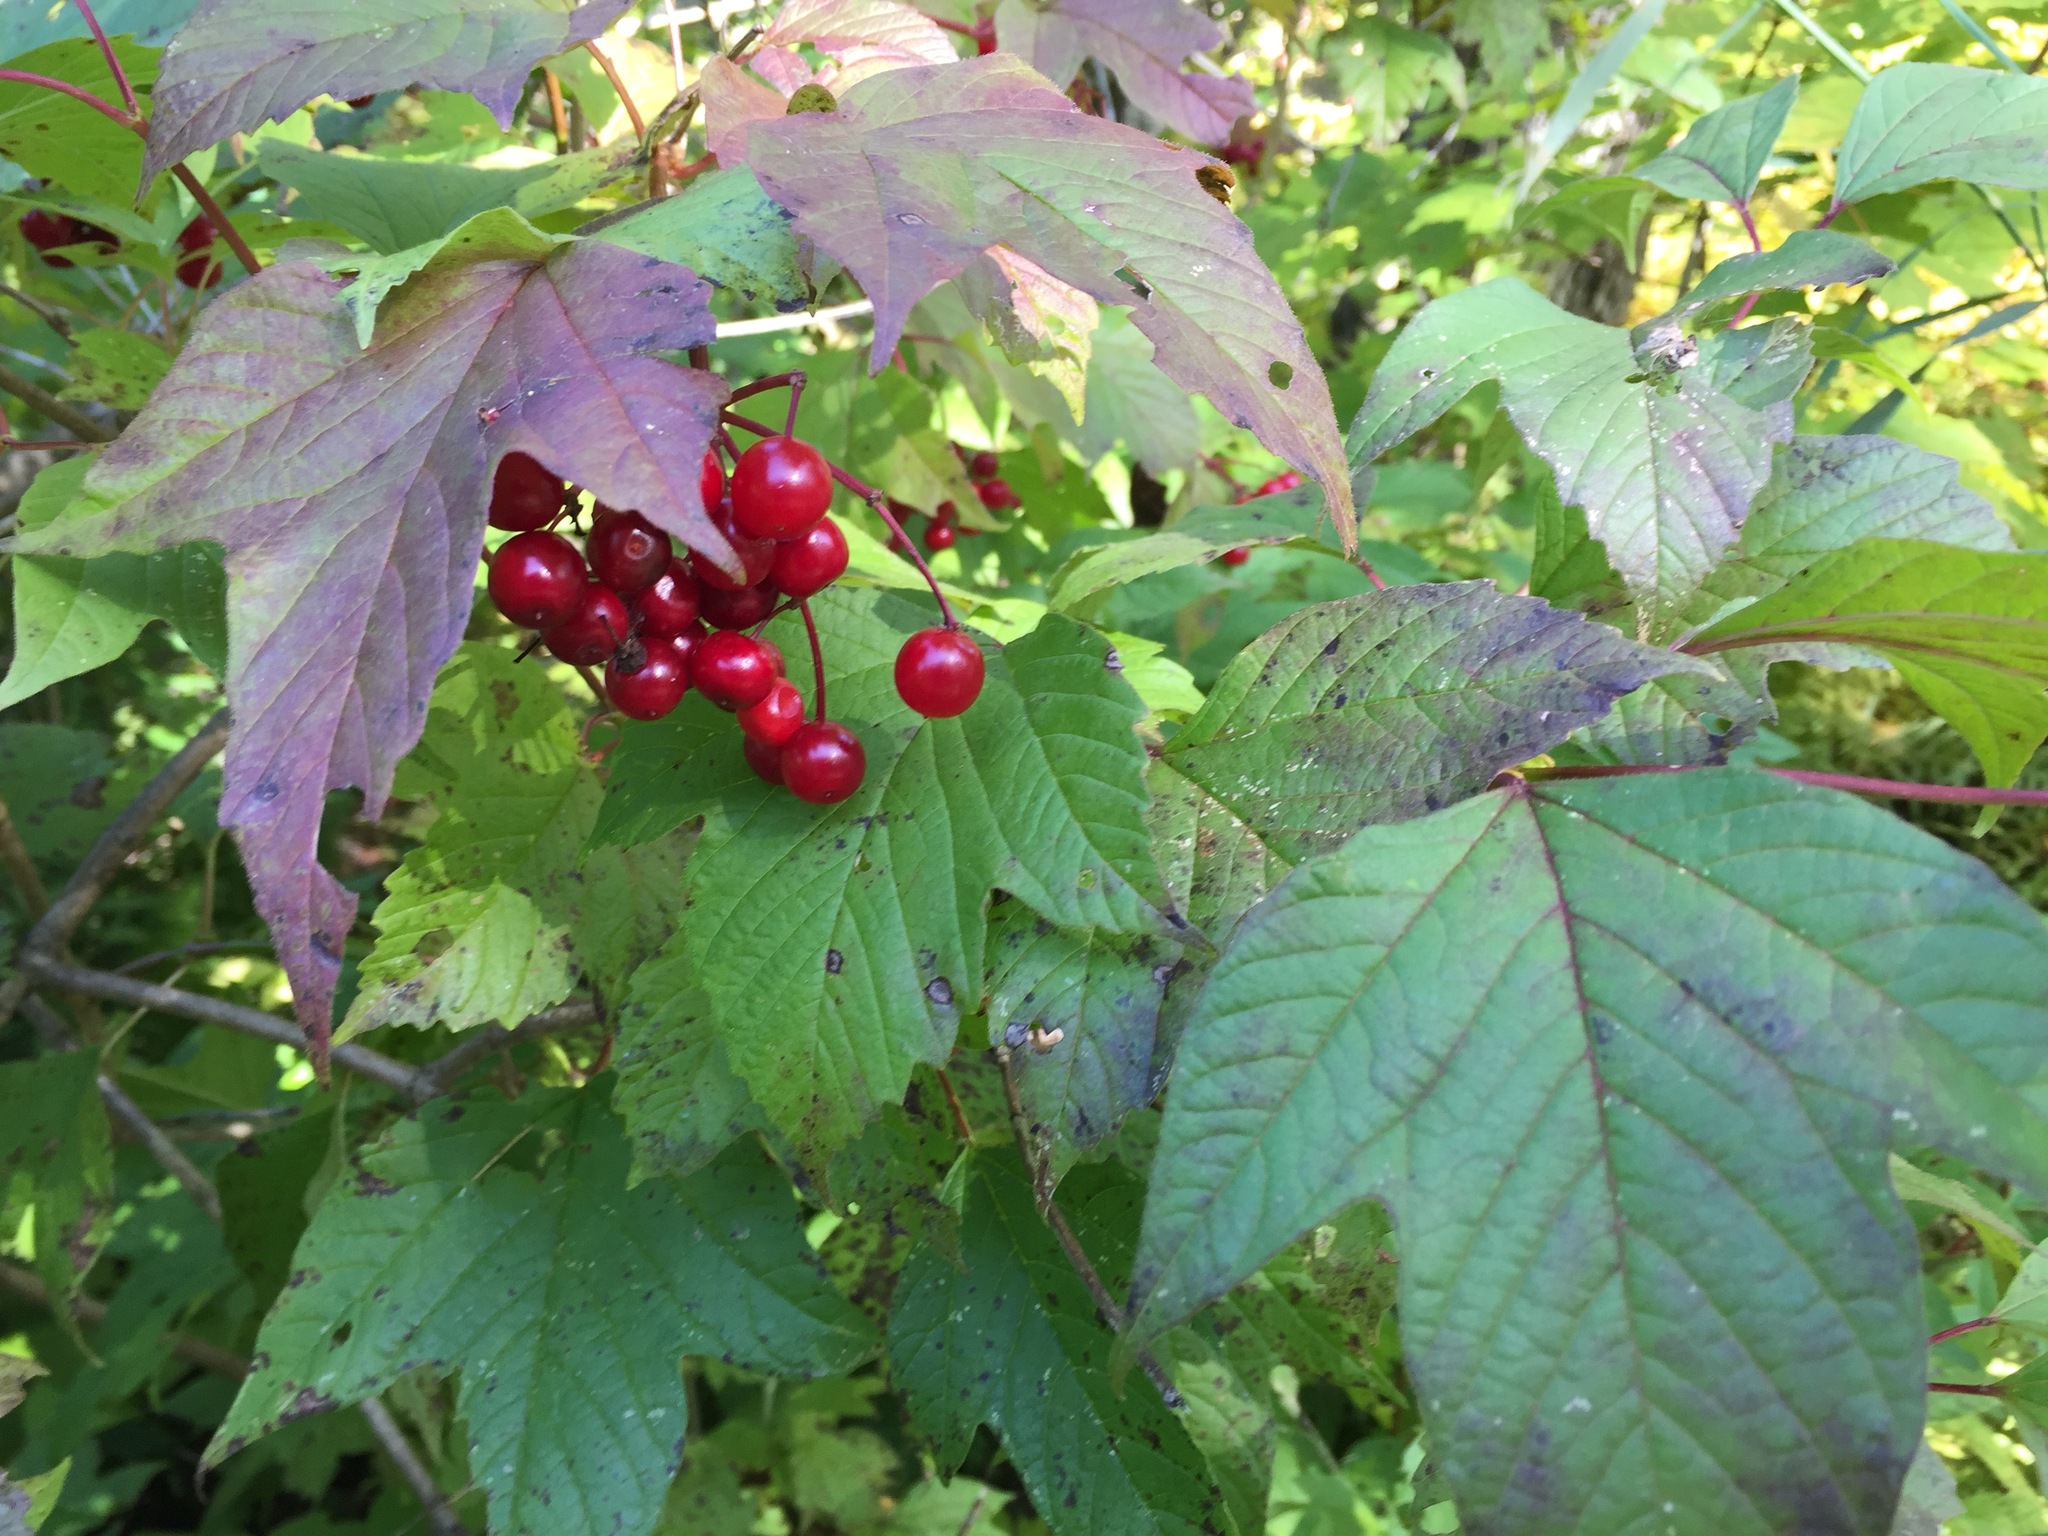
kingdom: Plantae
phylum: Tracheophyta
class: Magnoliopsida
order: Dipsacales
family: Viburnaceae
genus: Viburnum
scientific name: Viburnum opulus
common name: Guelder-rose
